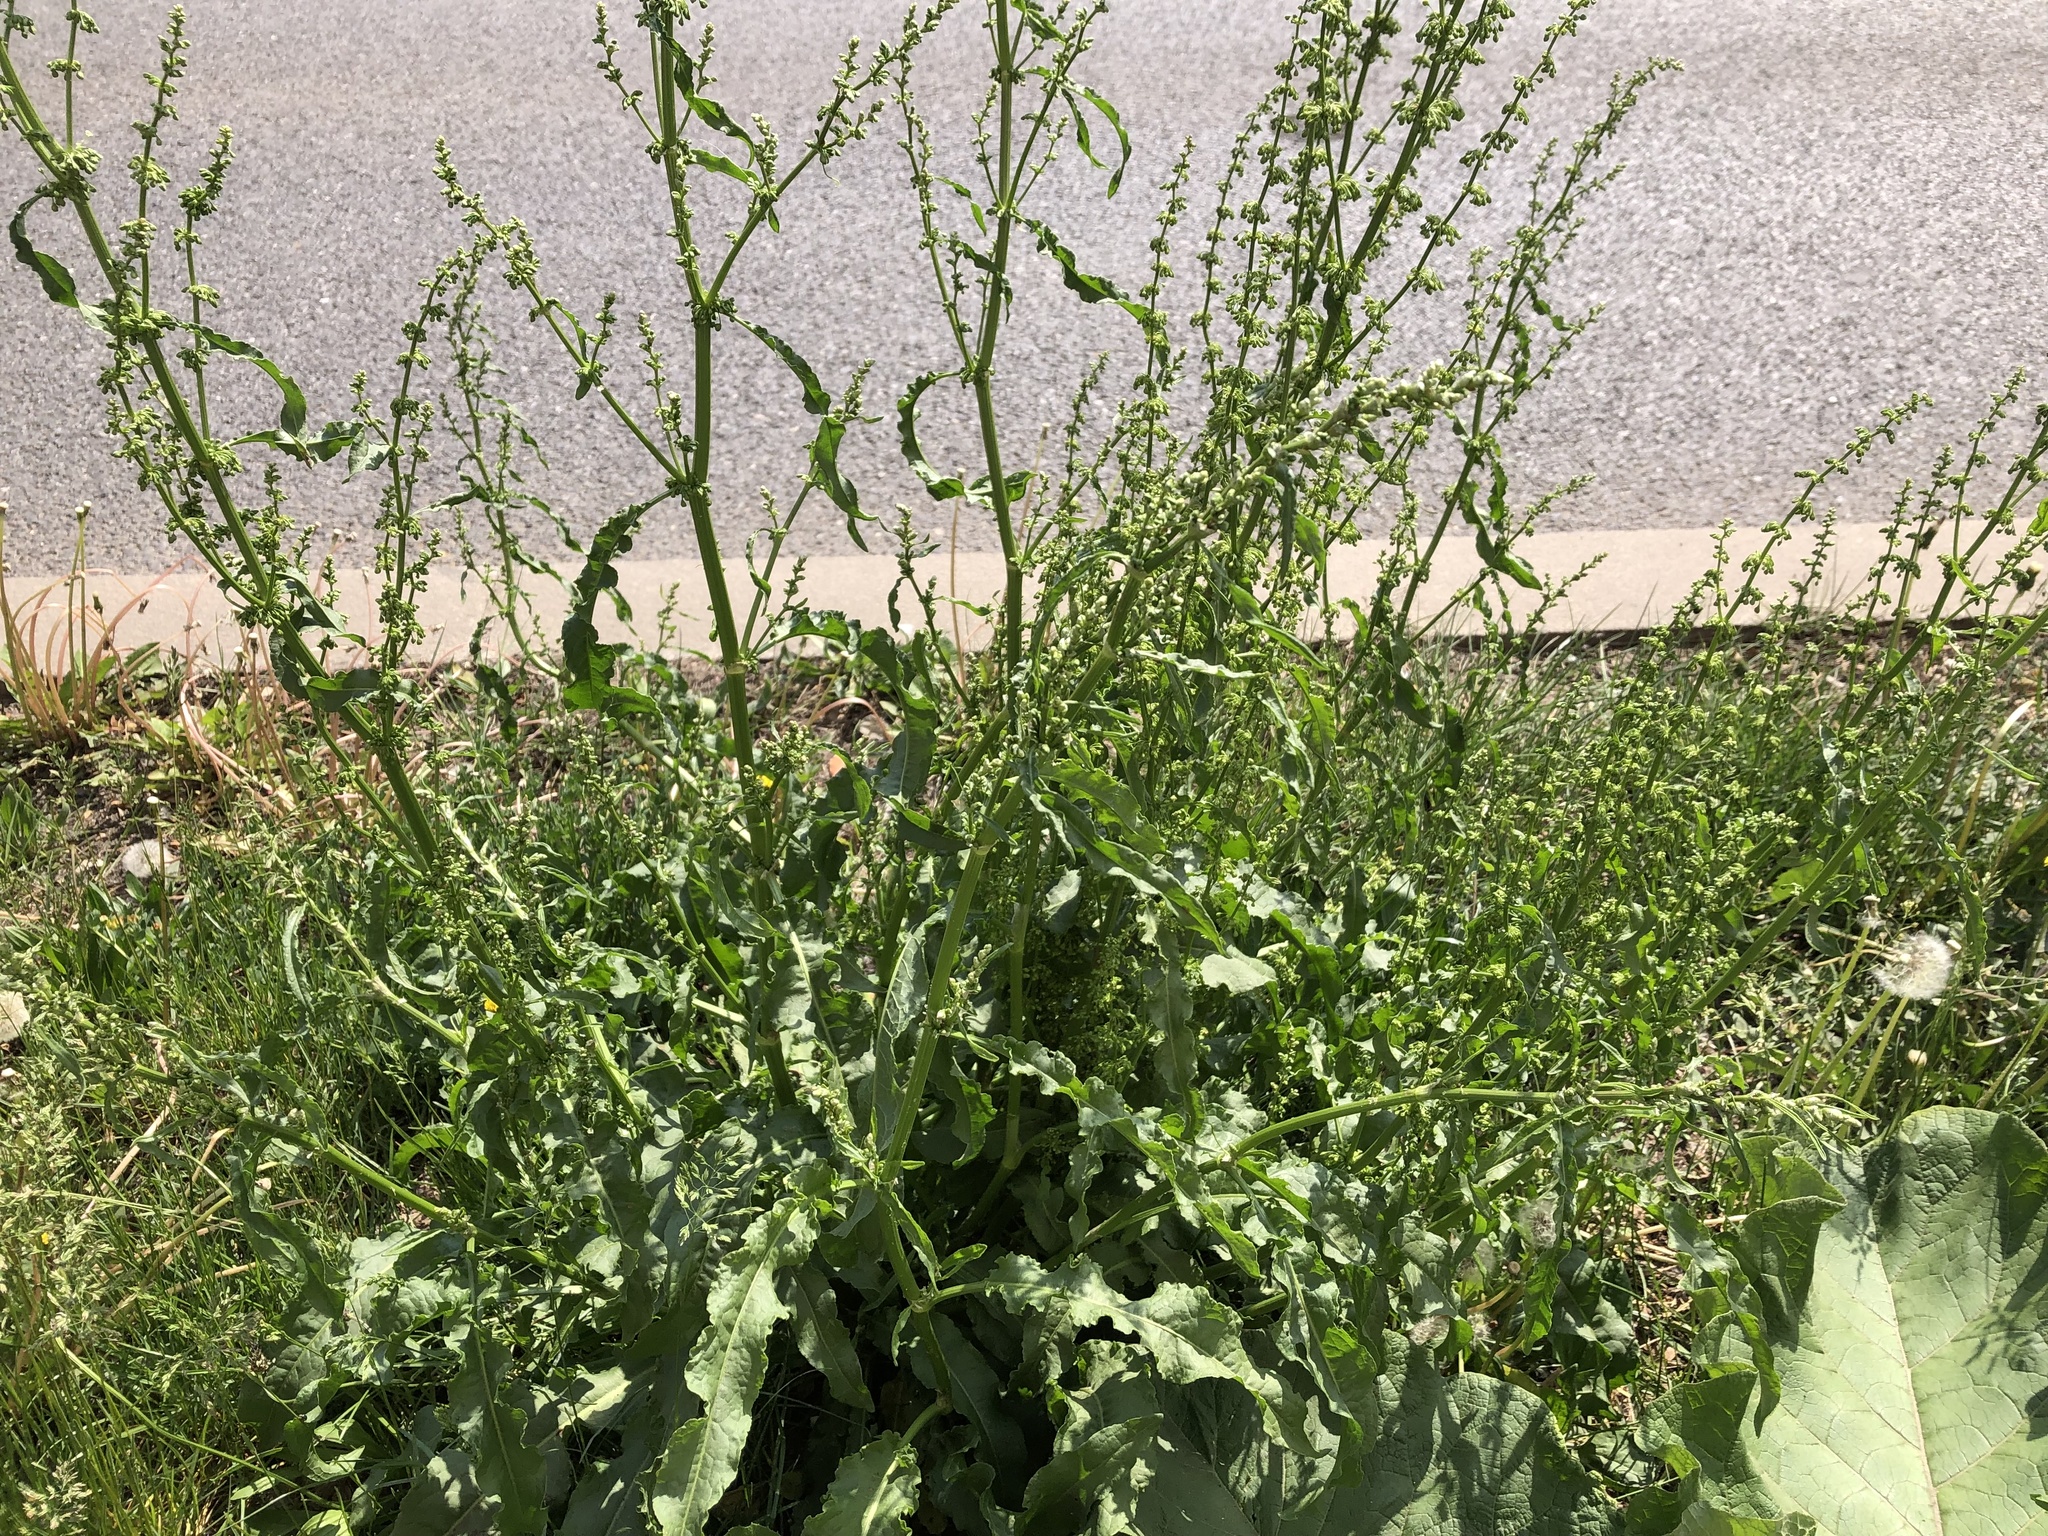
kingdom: Plantae
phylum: Tracheophyta
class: Magnoliopsida
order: Caryophyllales
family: Polygonaceae
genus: Rumex
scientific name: Rumex crispus
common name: Curled dock
